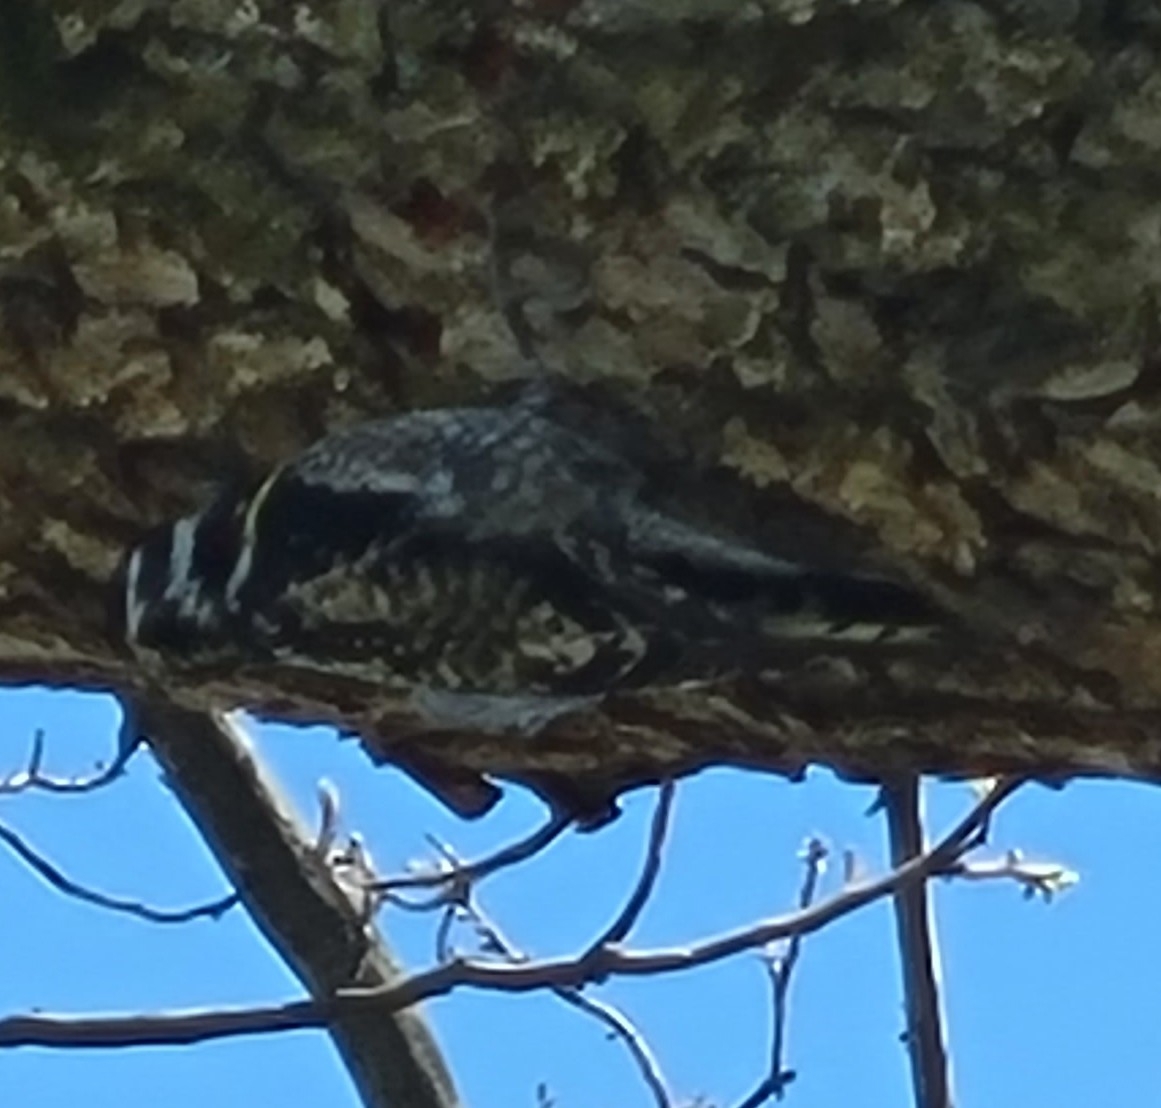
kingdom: Animalia
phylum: Chordata
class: Aves
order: Piciformes
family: Picidae
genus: Sphyrapicus
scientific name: Sphyrapicus varius
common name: Yellow-bellied sapsucker
